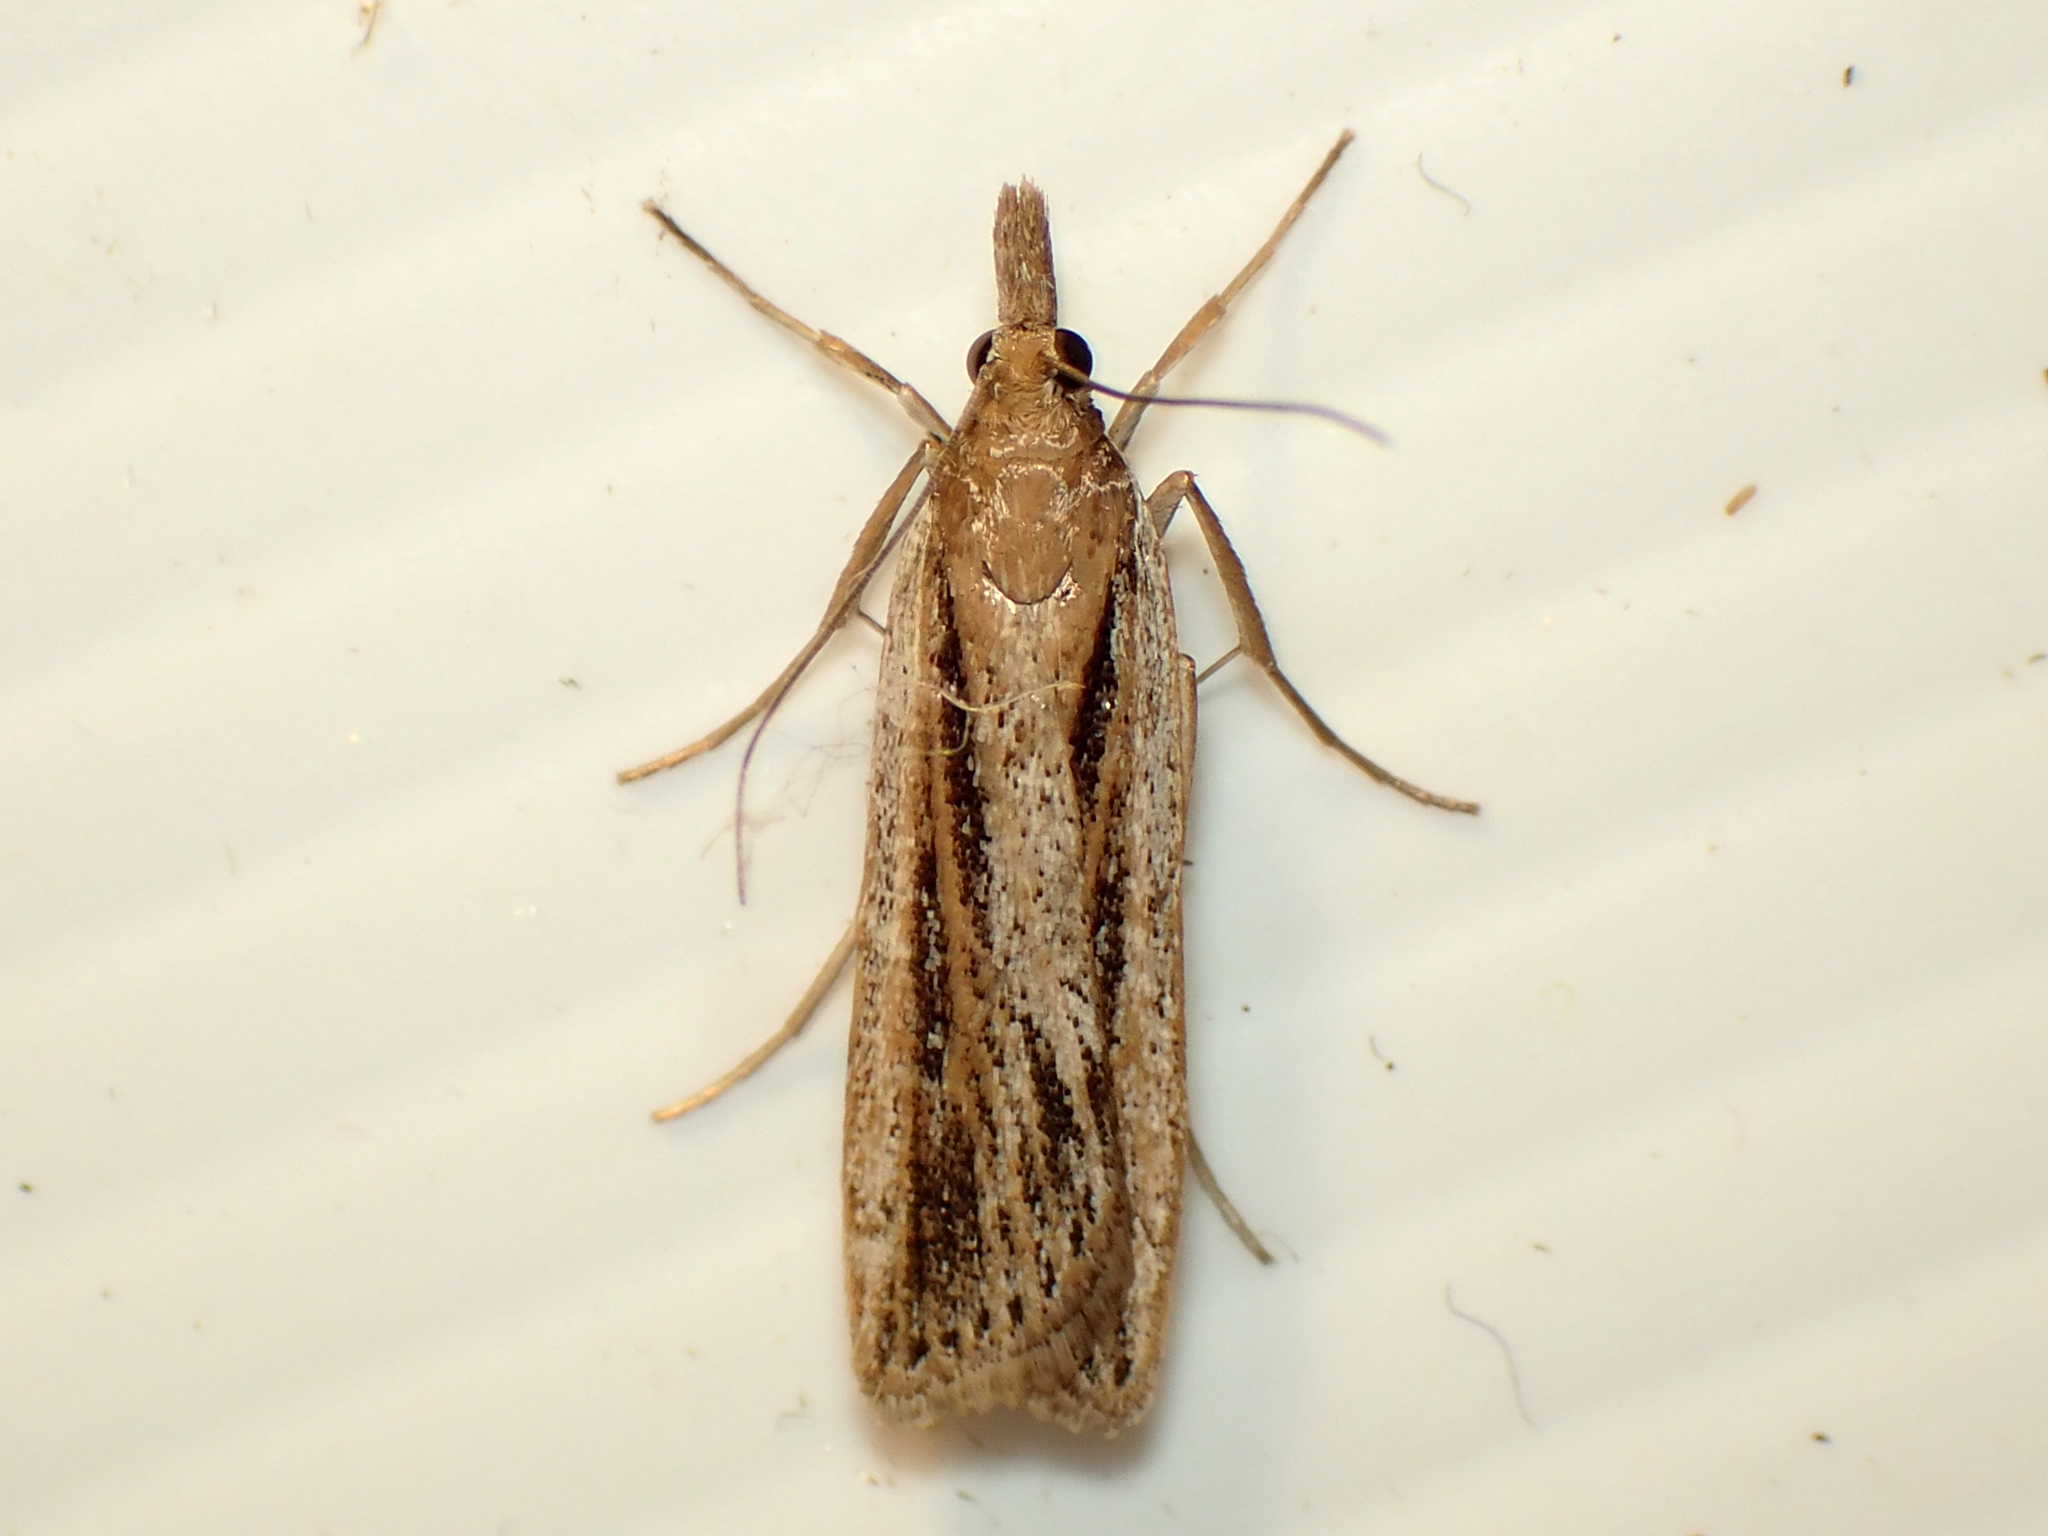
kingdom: Animalia
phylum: Arthropoda
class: Insecta
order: Lepidoptera
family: Crambidae
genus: Eudonia
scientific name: Eudonia sabulosella
